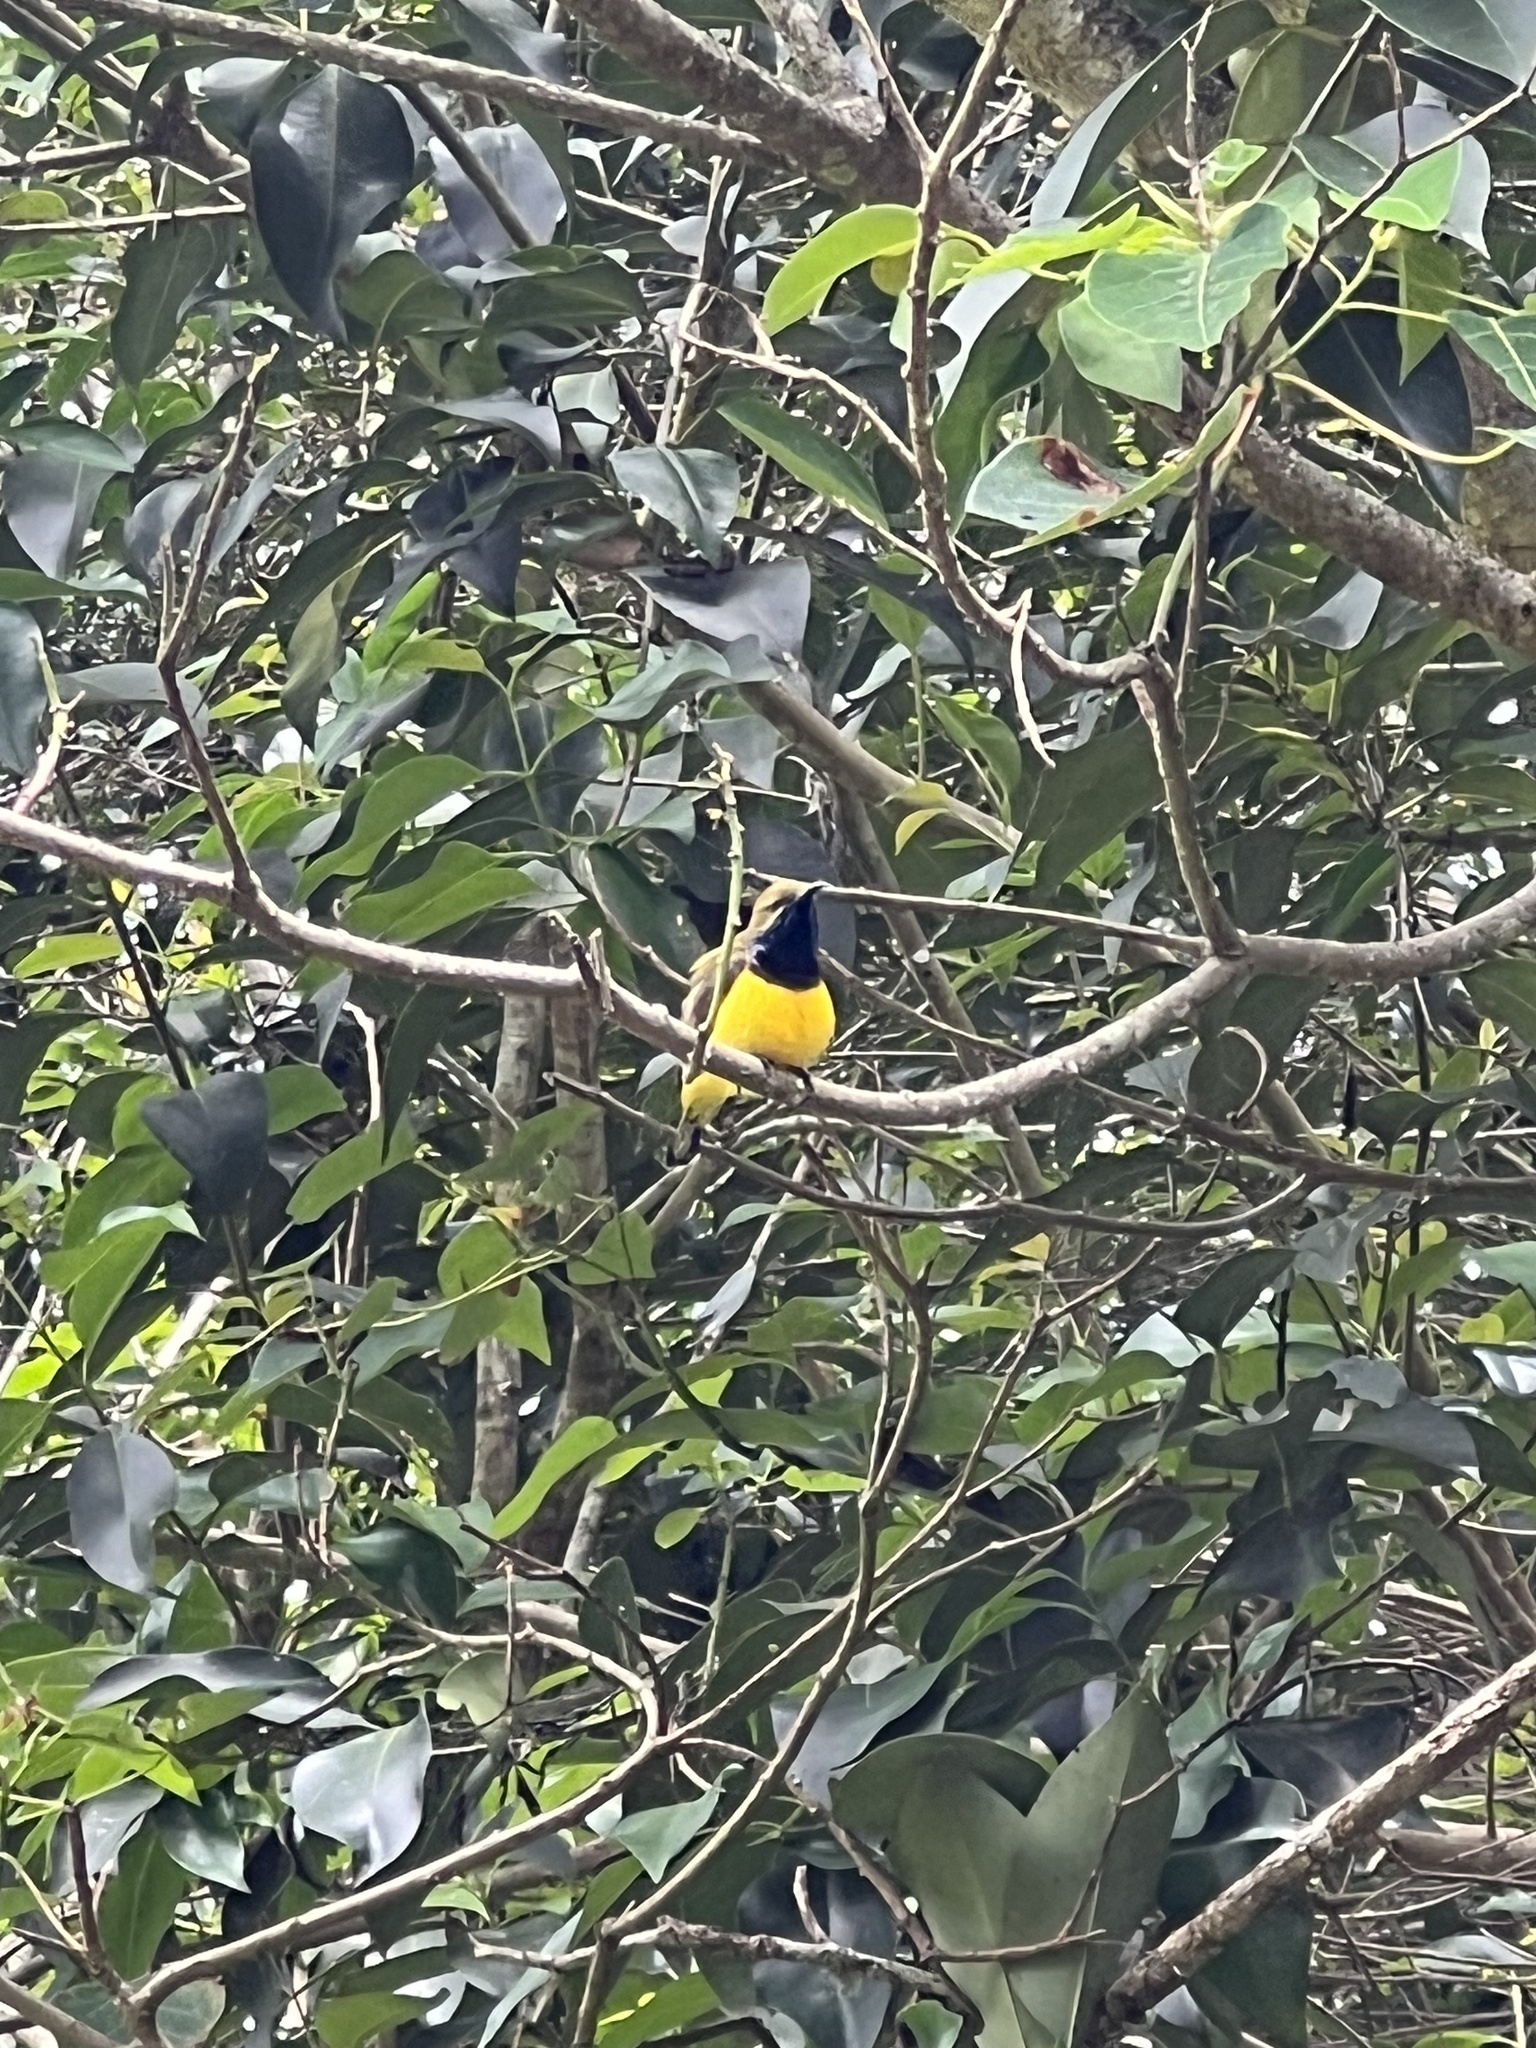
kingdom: Animalia
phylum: Chordata
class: Aves
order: Passeriformes
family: Nectariniidae
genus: Cinnyris
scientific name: Cinnyris
